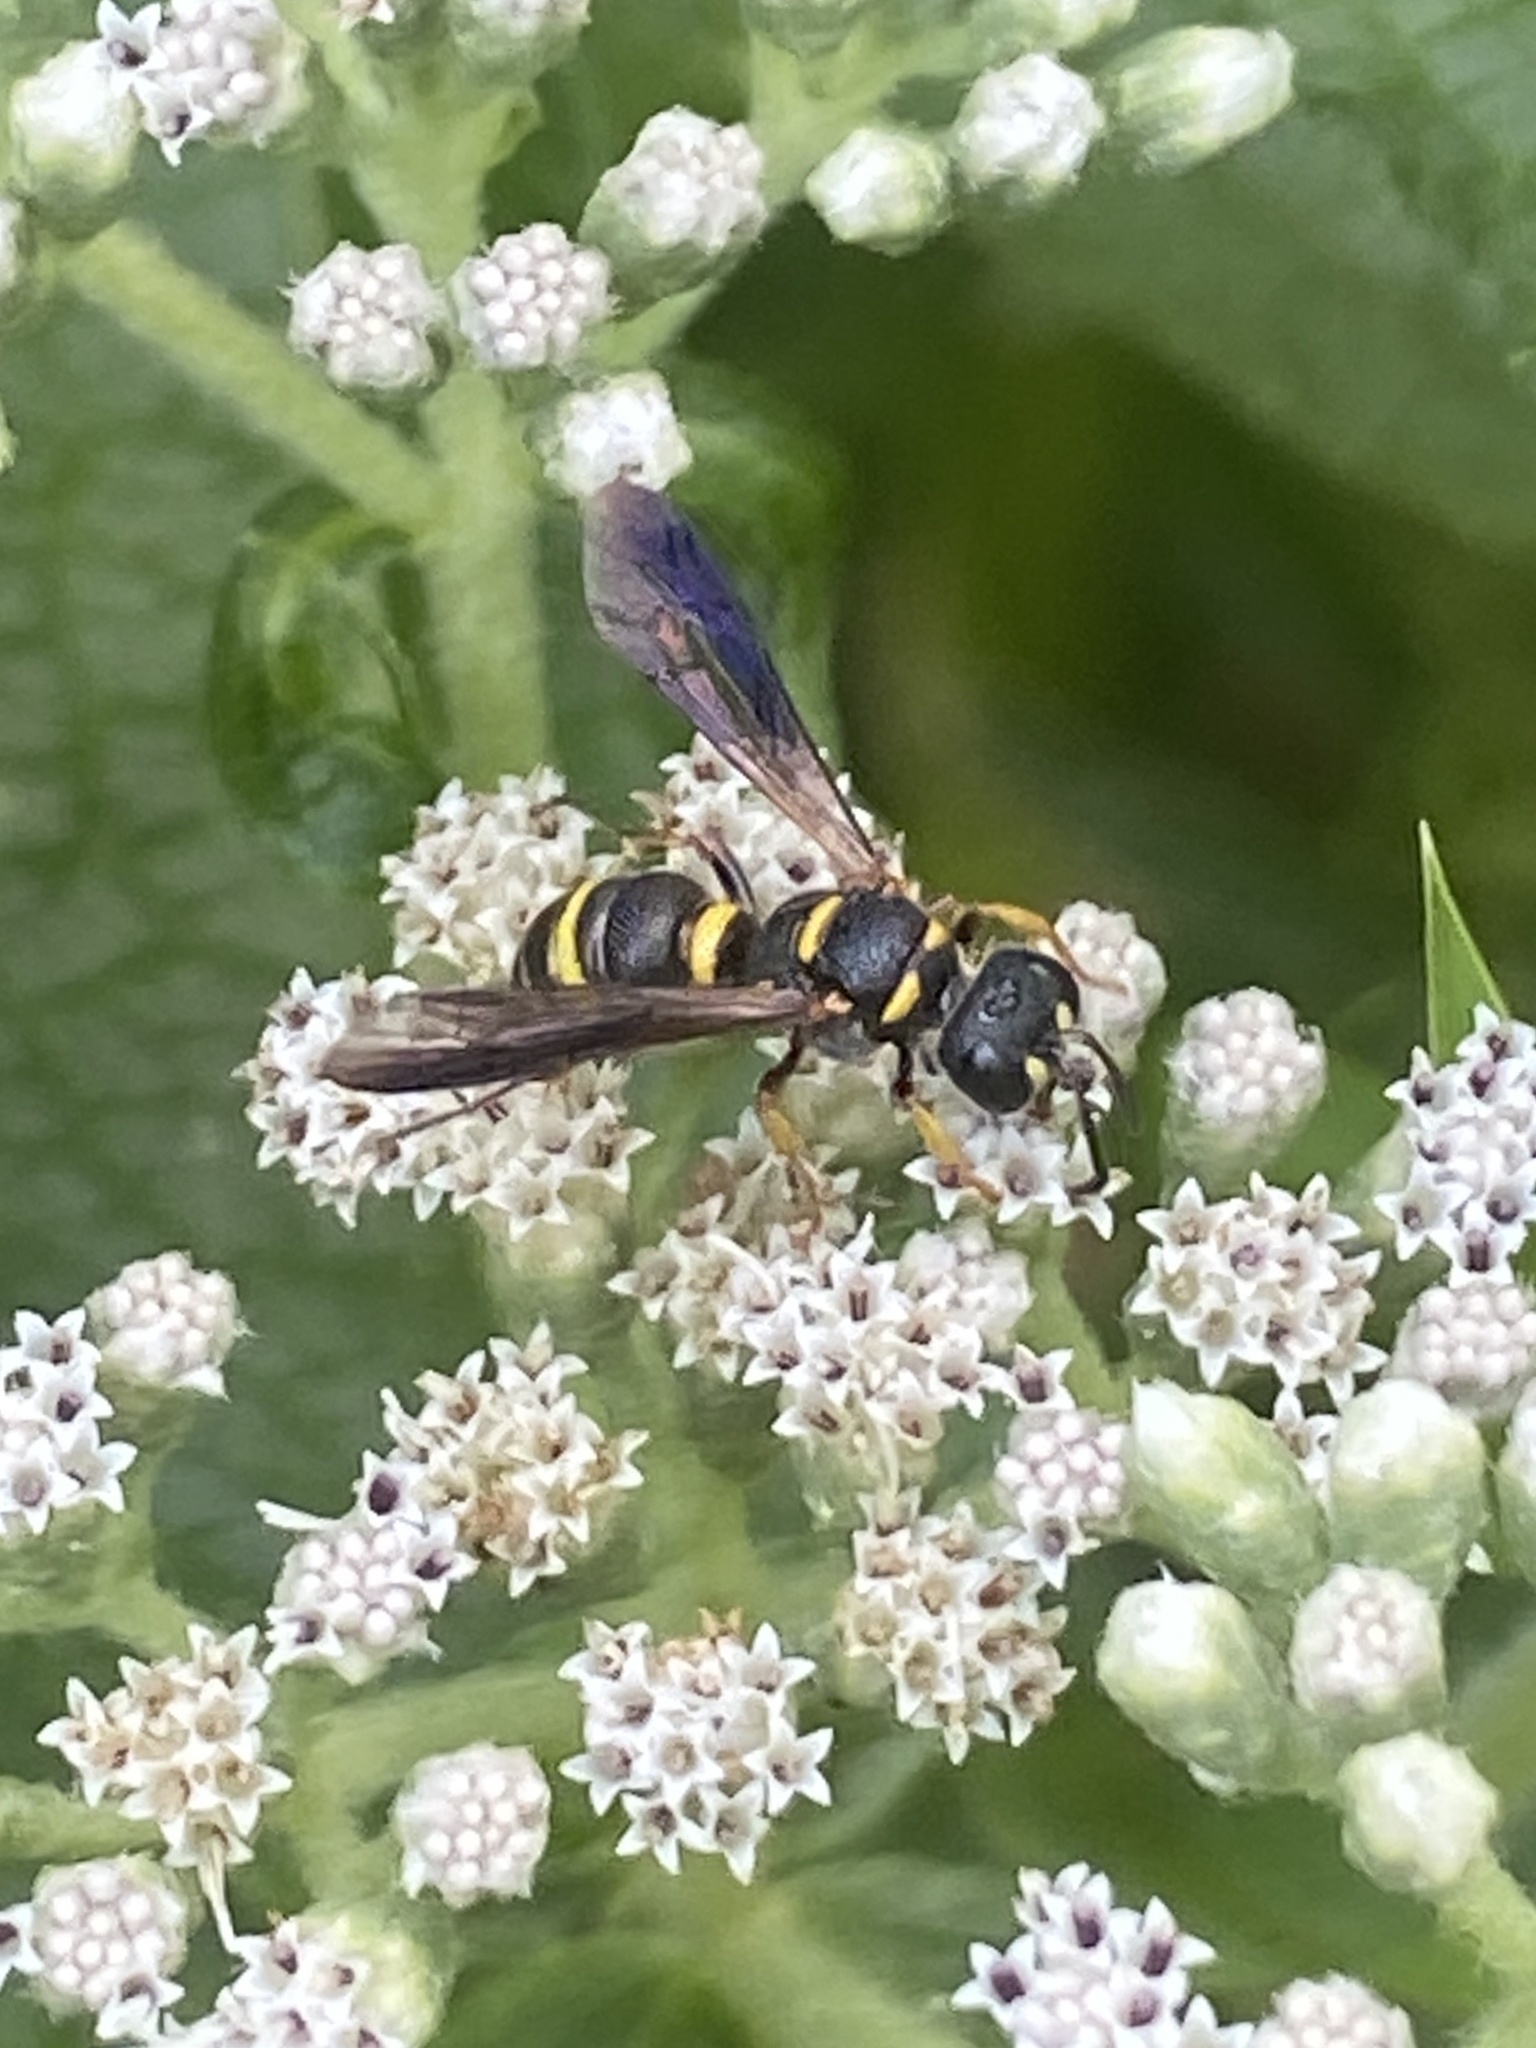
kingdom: Animalia
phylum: Arthropoda
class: Insecta
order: Hymenoptera
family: Crabronidae
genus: Cerceris
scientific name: Cerceris insolita
